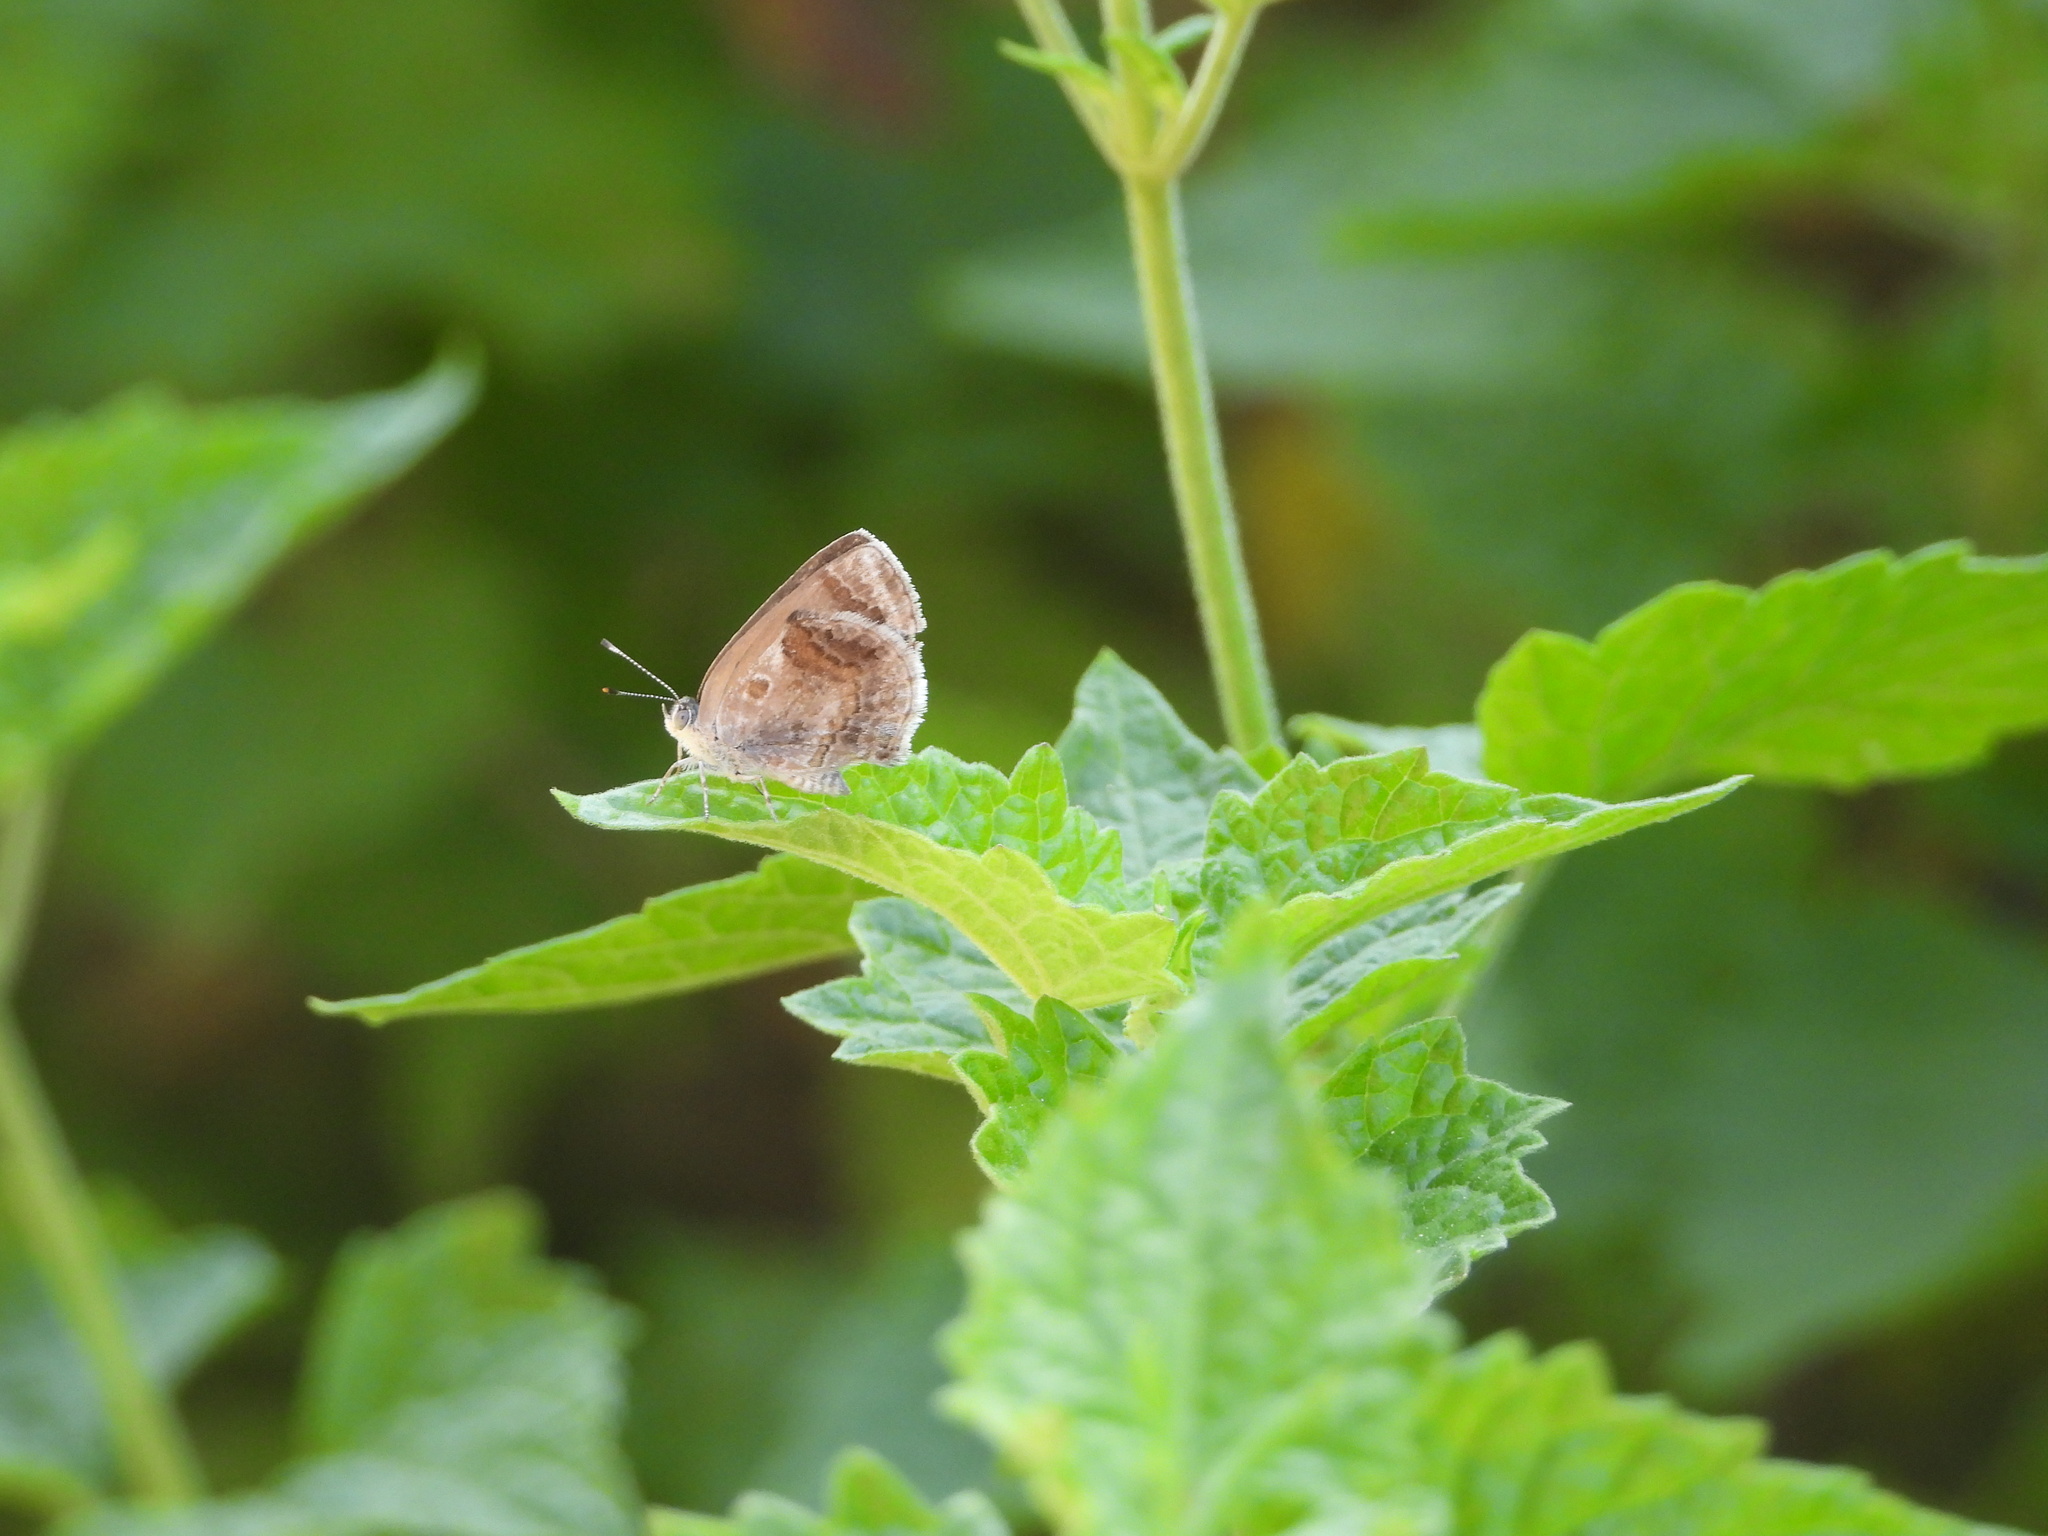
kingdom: Animalia
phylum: Arthropoda
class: Insecta
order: Lepidoptera
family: Lycaenidae
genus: Strymon
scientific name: Strymon bazochii
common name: Lantana scrub-hairstreak
